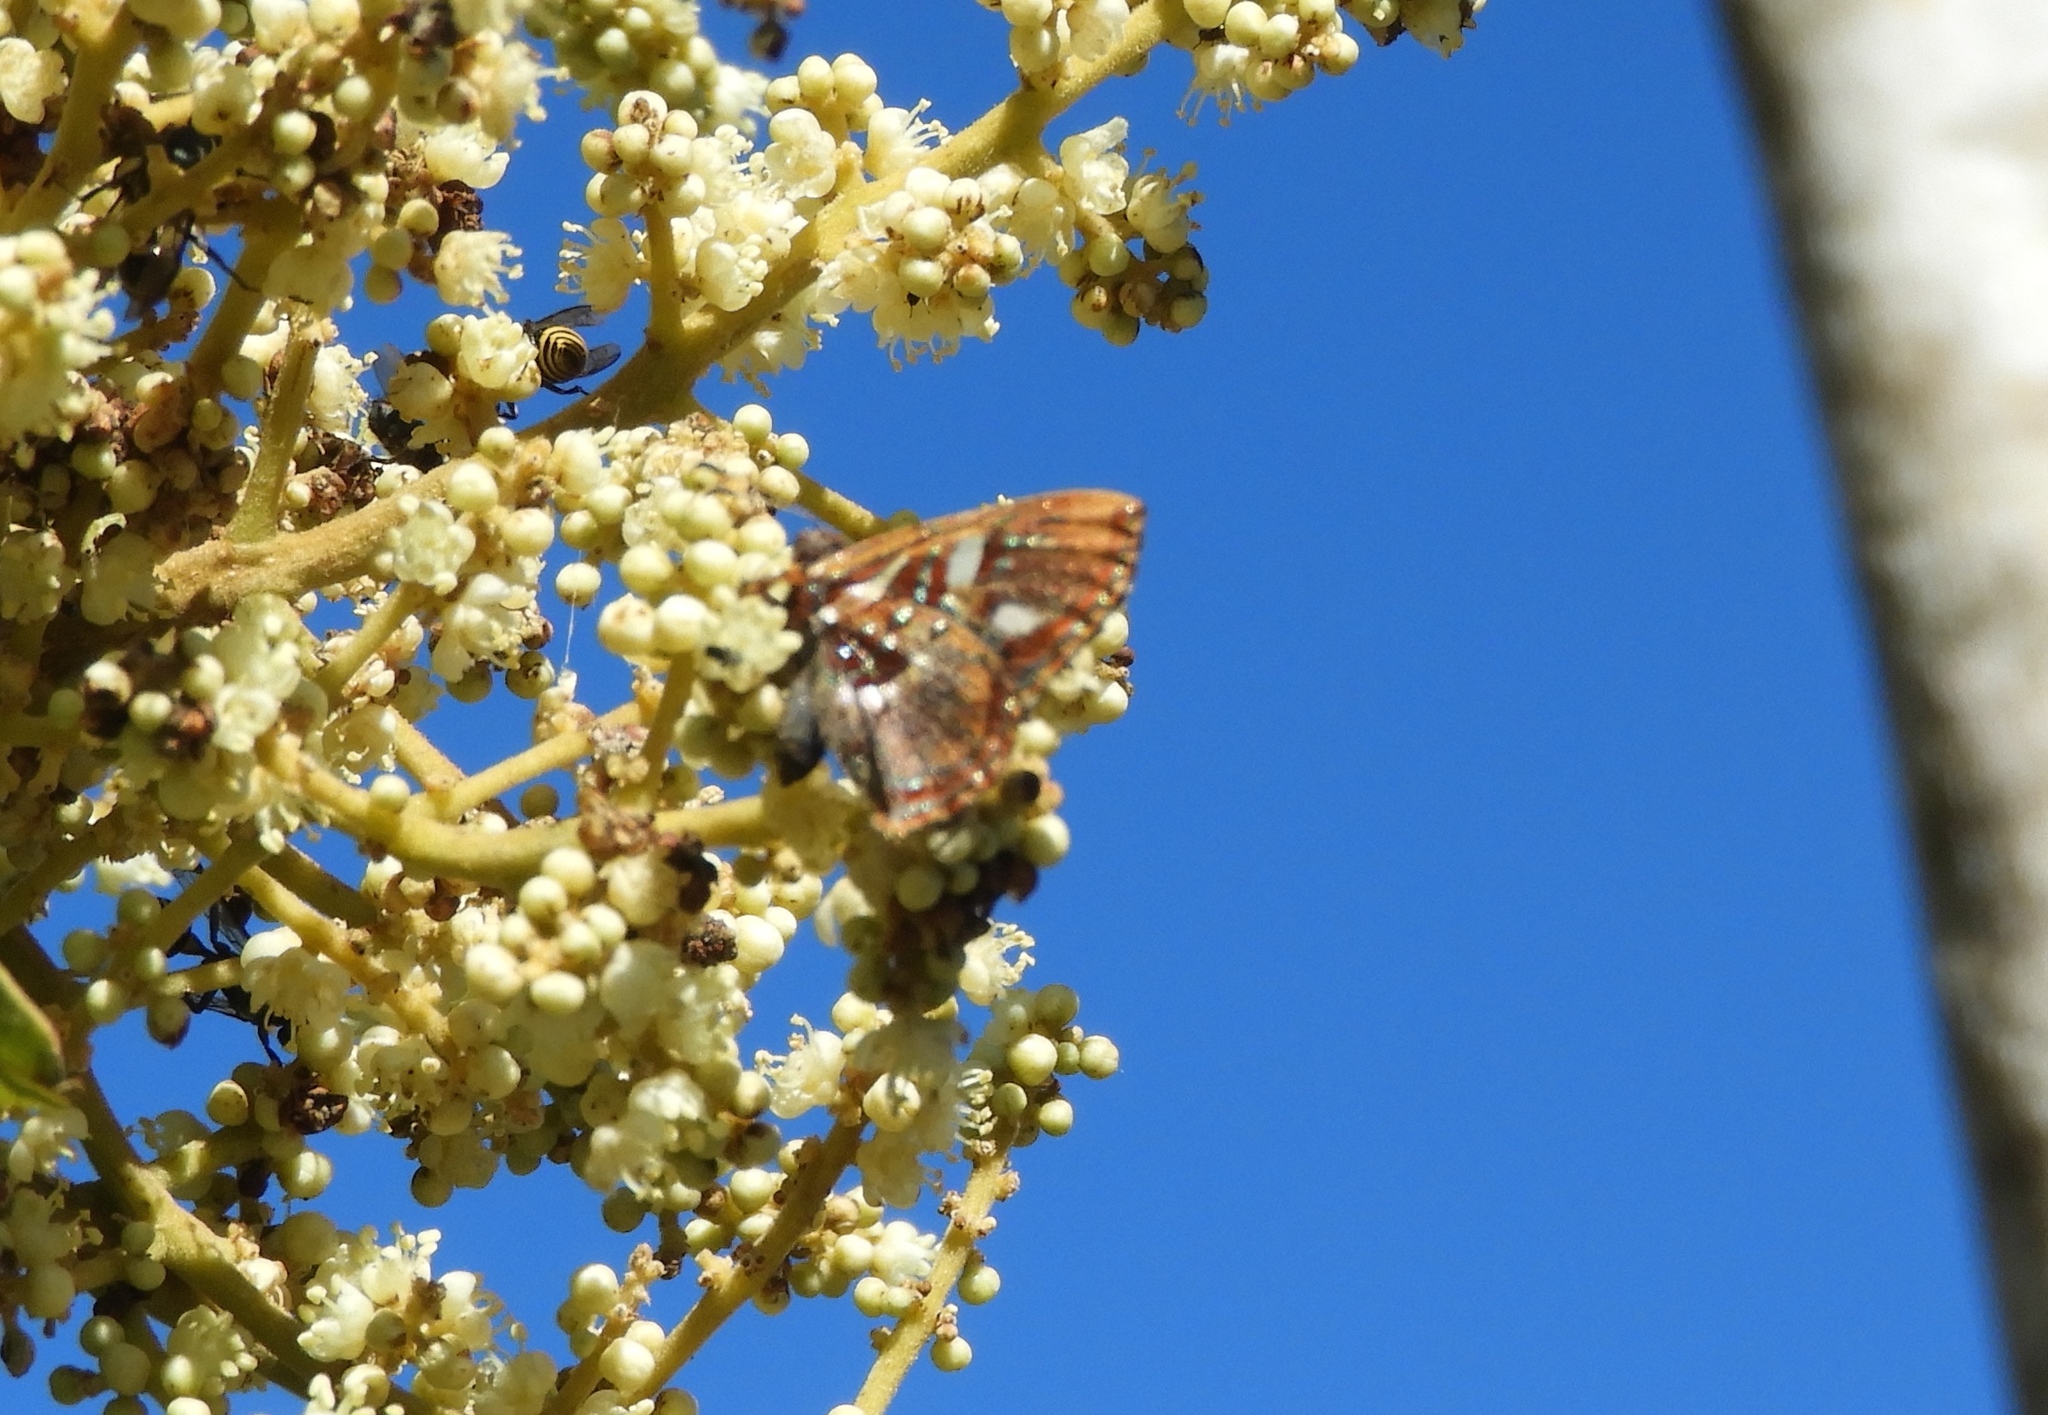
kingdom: Animalia
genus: Anteros
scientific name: Anteros carausius
